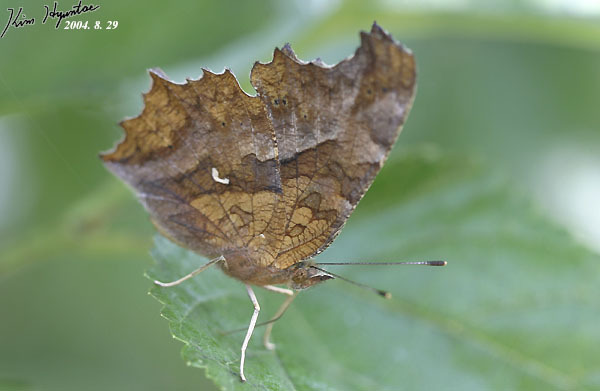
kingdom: Animalia
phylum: Arthropoda
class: Insecta
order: Lepidoptera
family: Nymphalidae
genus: Polygonia
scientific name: Polygonia c-aureum
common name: Asian comma
